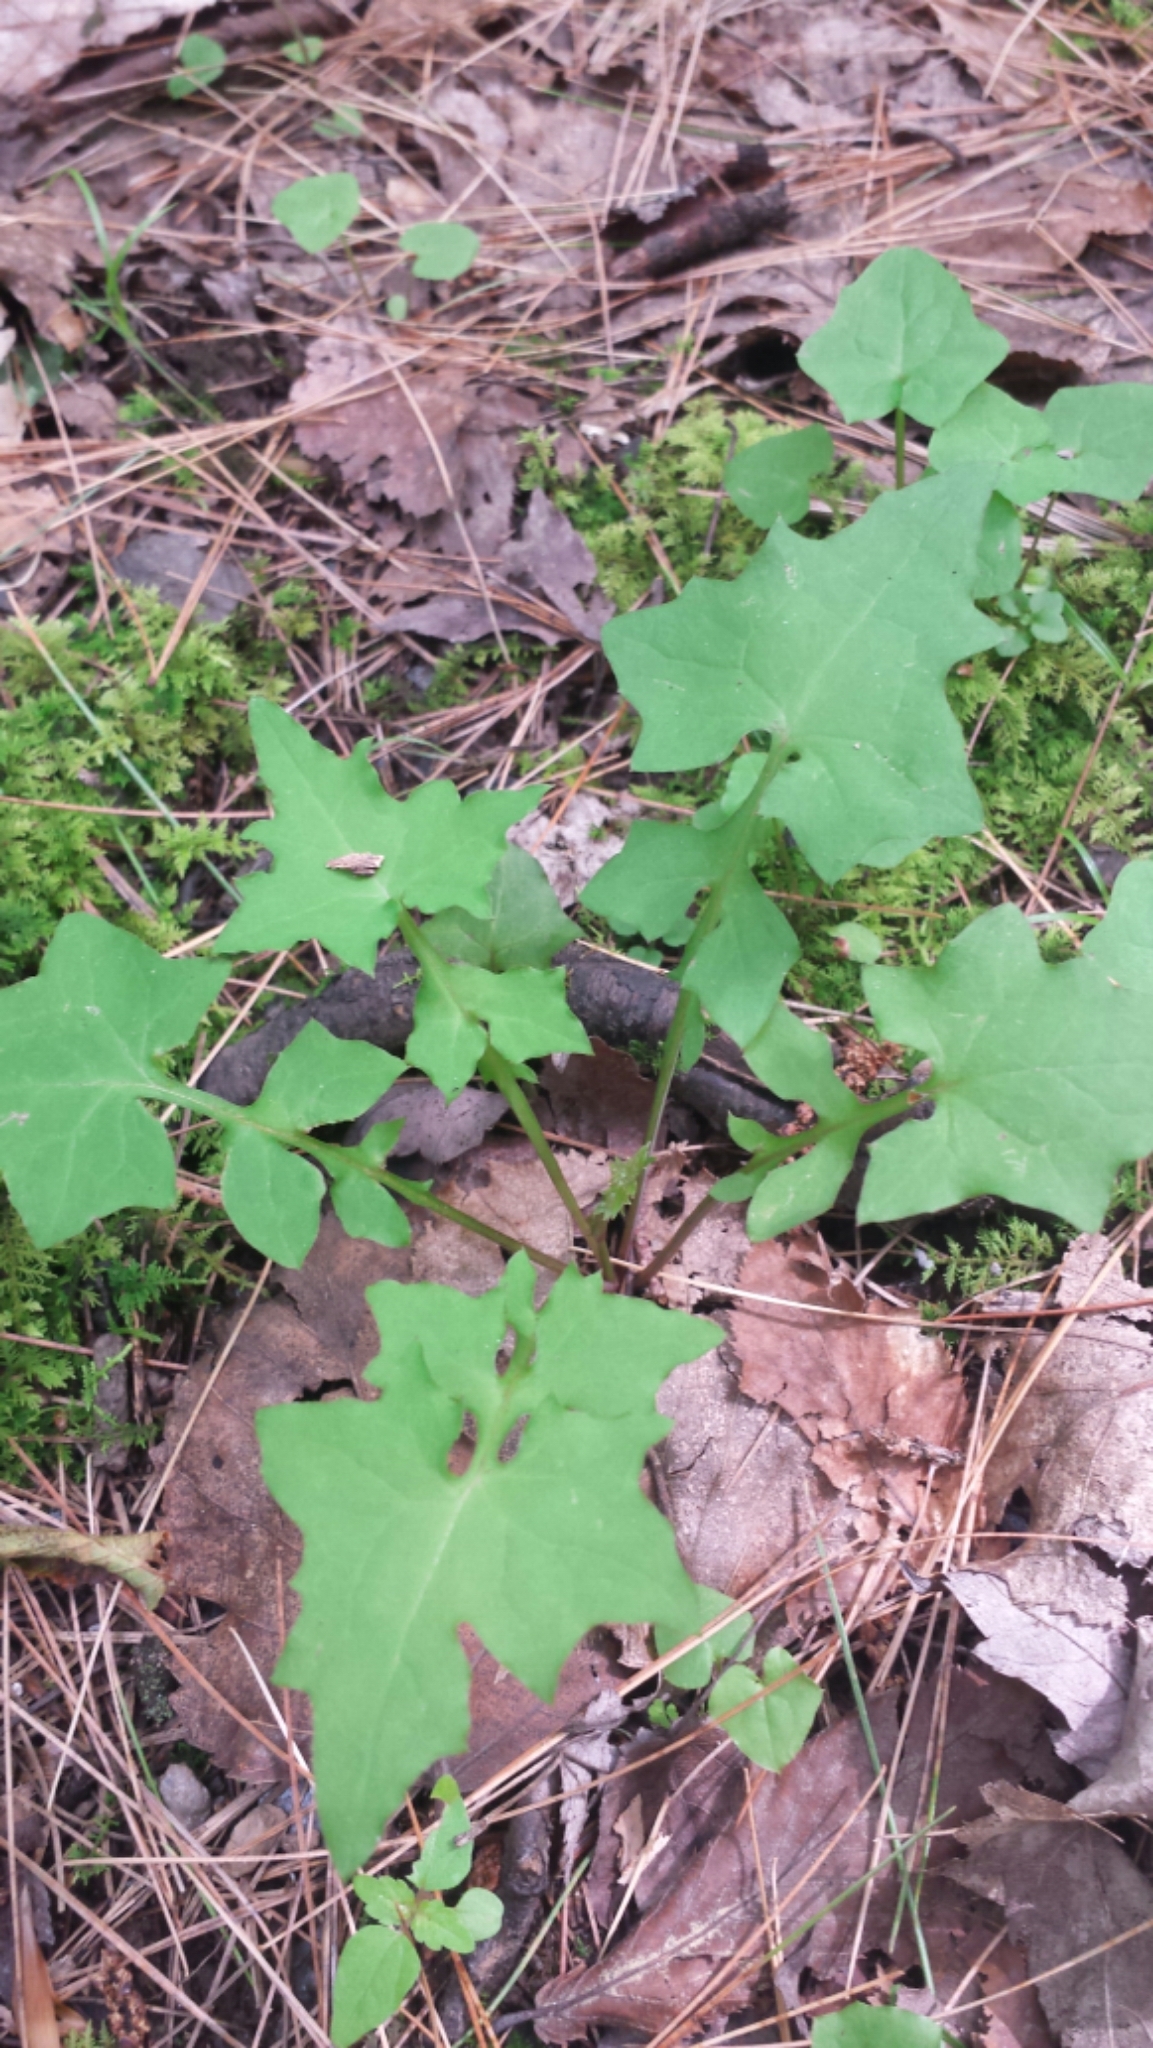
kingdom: Plantae
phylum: Tracheophyta
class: Magnoliopsida
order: Asterales
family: Asteraceae
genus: Mycelis
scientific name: Mycelis muralis
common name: Wall lettuce
